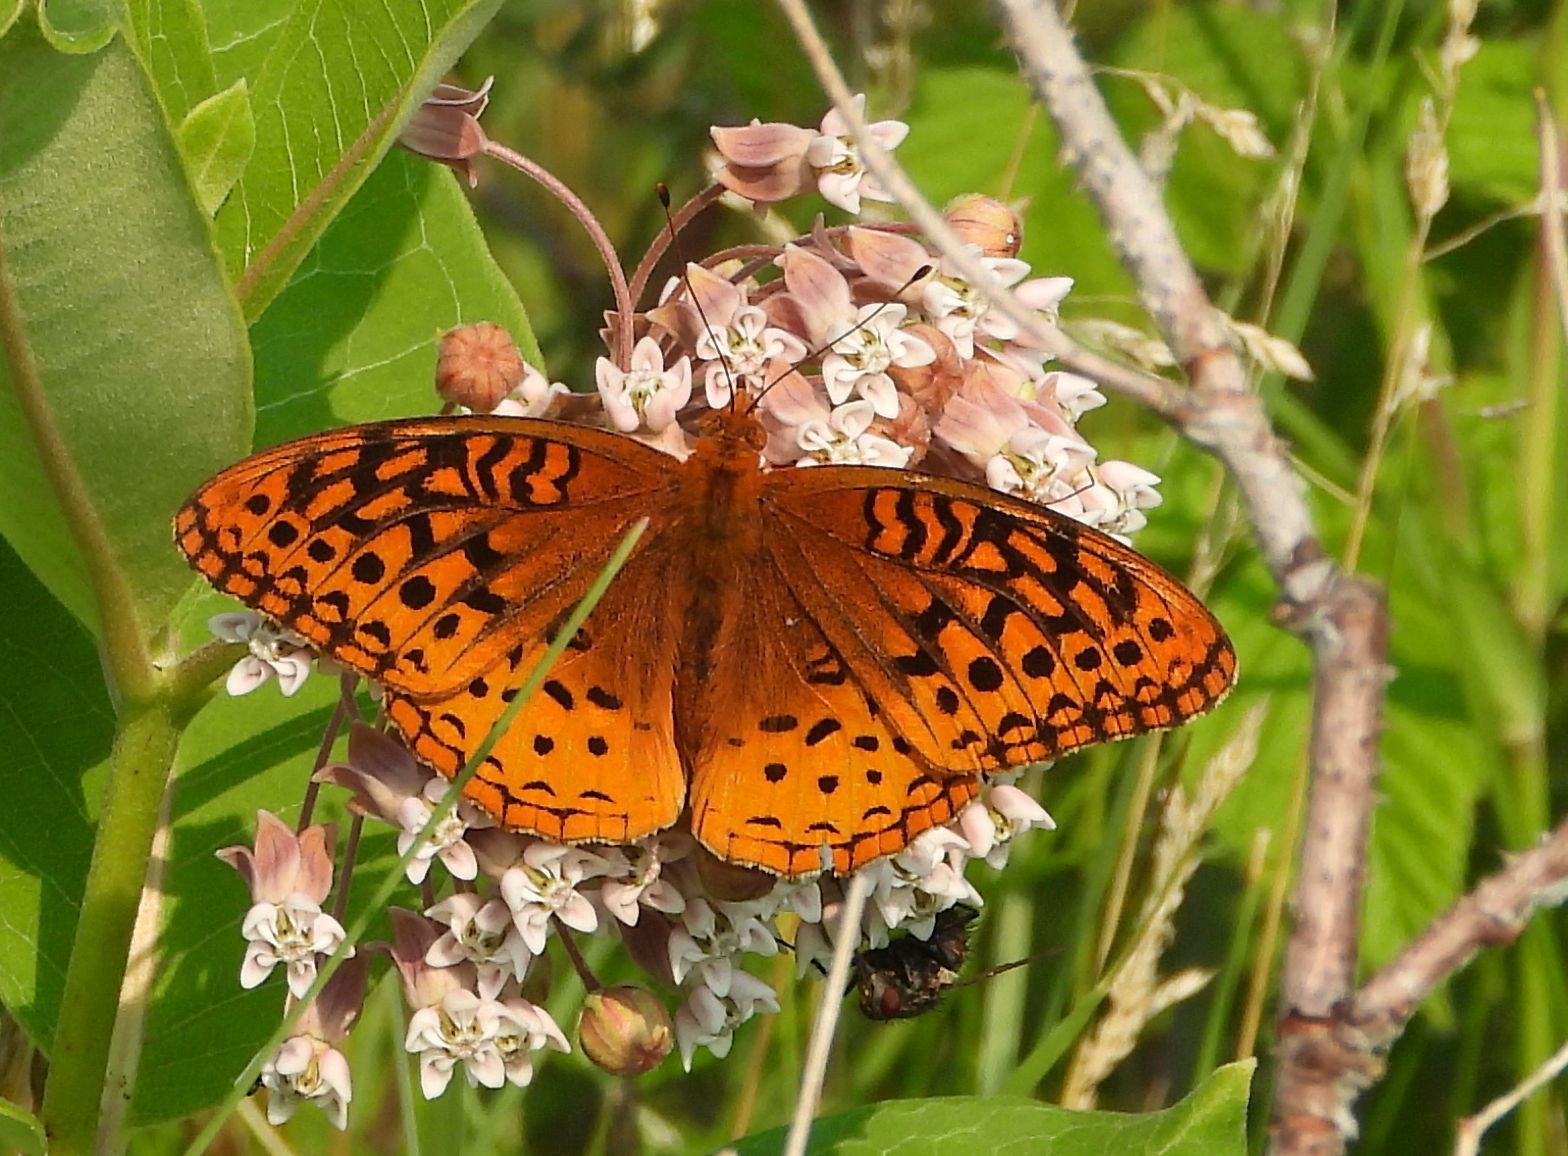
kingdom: Animalia
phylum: Arthropoda
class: Insecta
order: Lepidoptera
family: Nymphalidae
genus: Speyeria
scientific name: Speyeria cybele
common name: Great spangled fritillary
